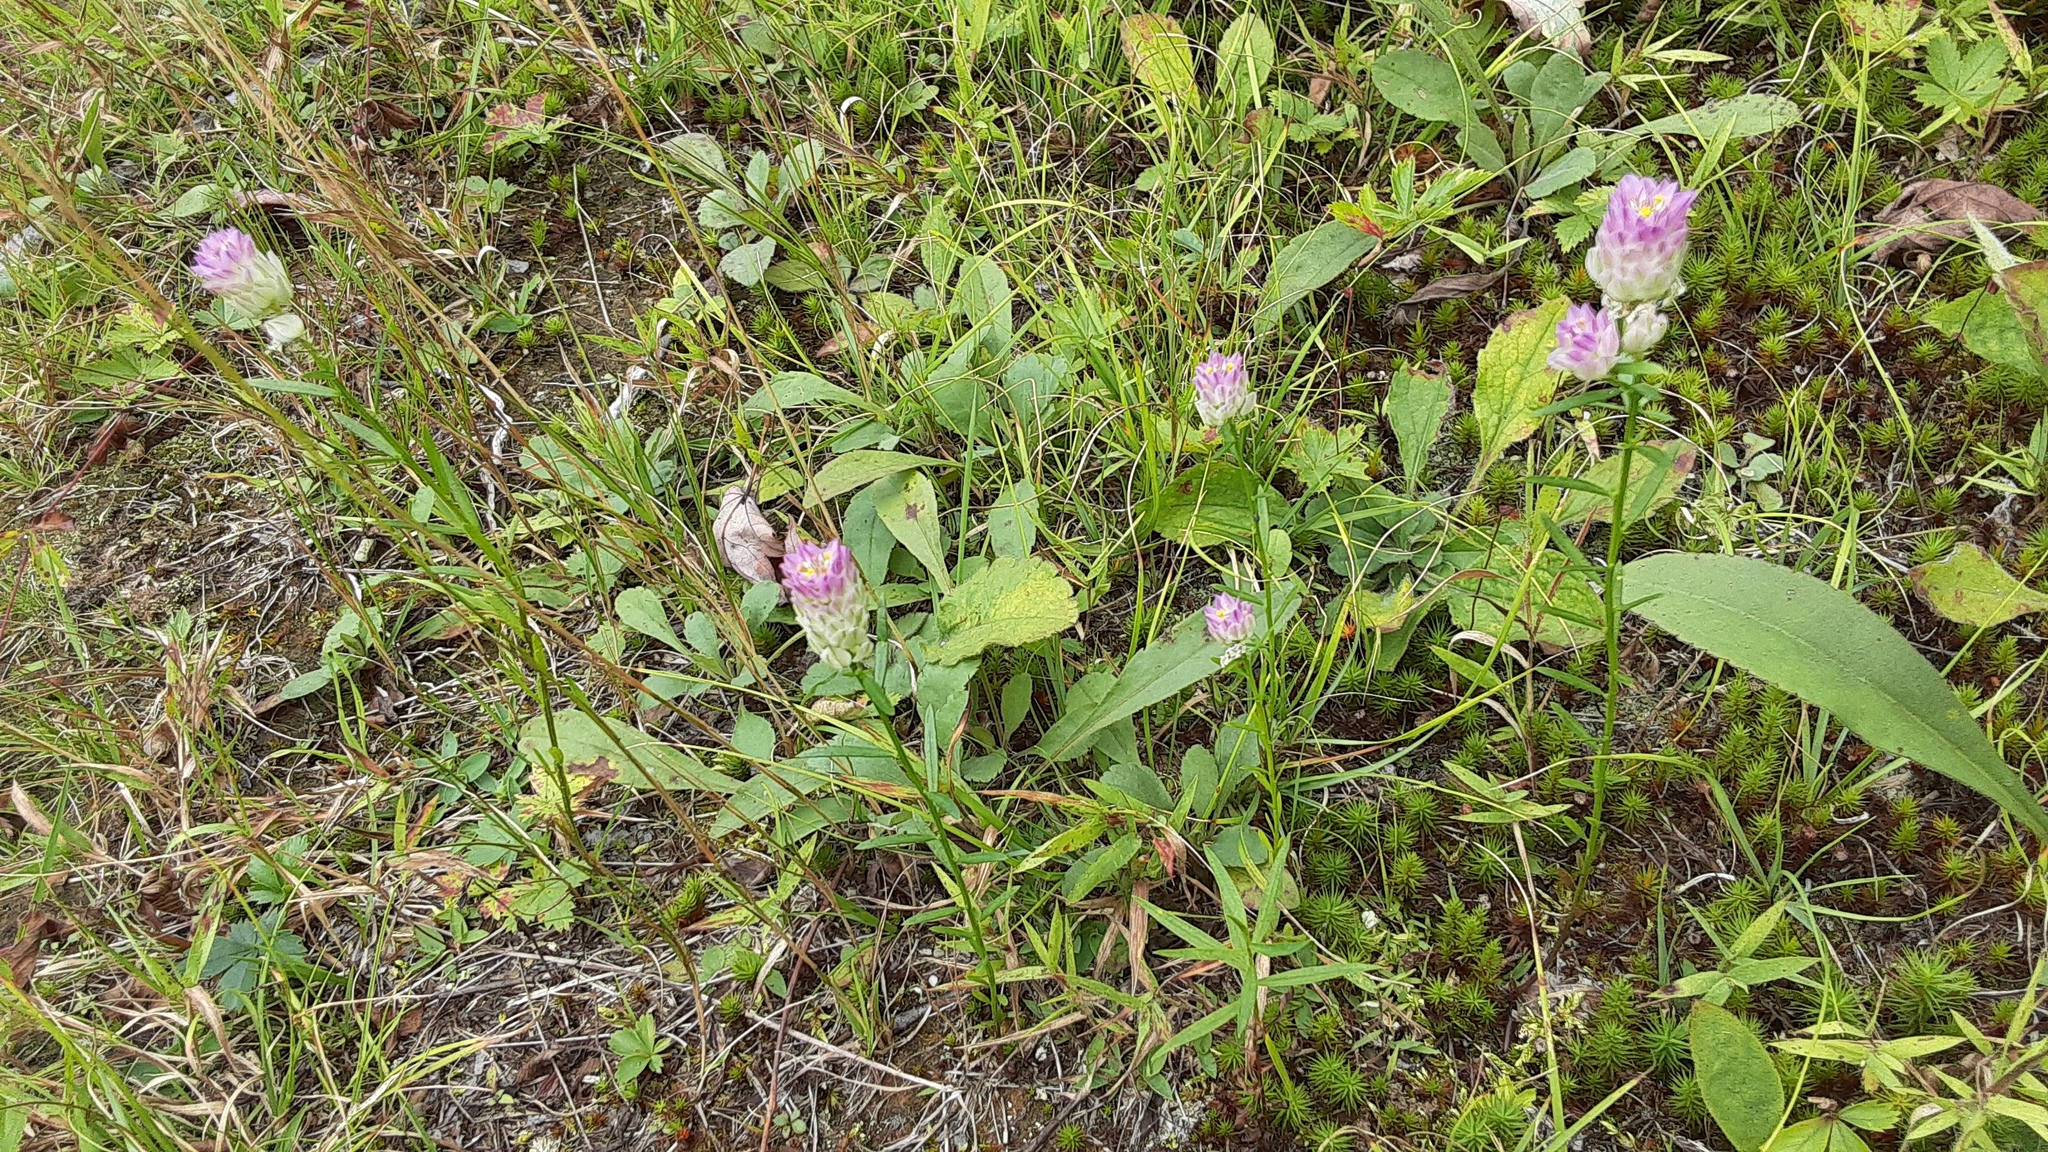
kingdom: Plantae
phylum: Tracheophyta
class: Magnoliopsida
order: Fabales
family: Polygalaceae
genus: Polygala
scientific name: Polygala sanguinea
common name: Blood milkwort
